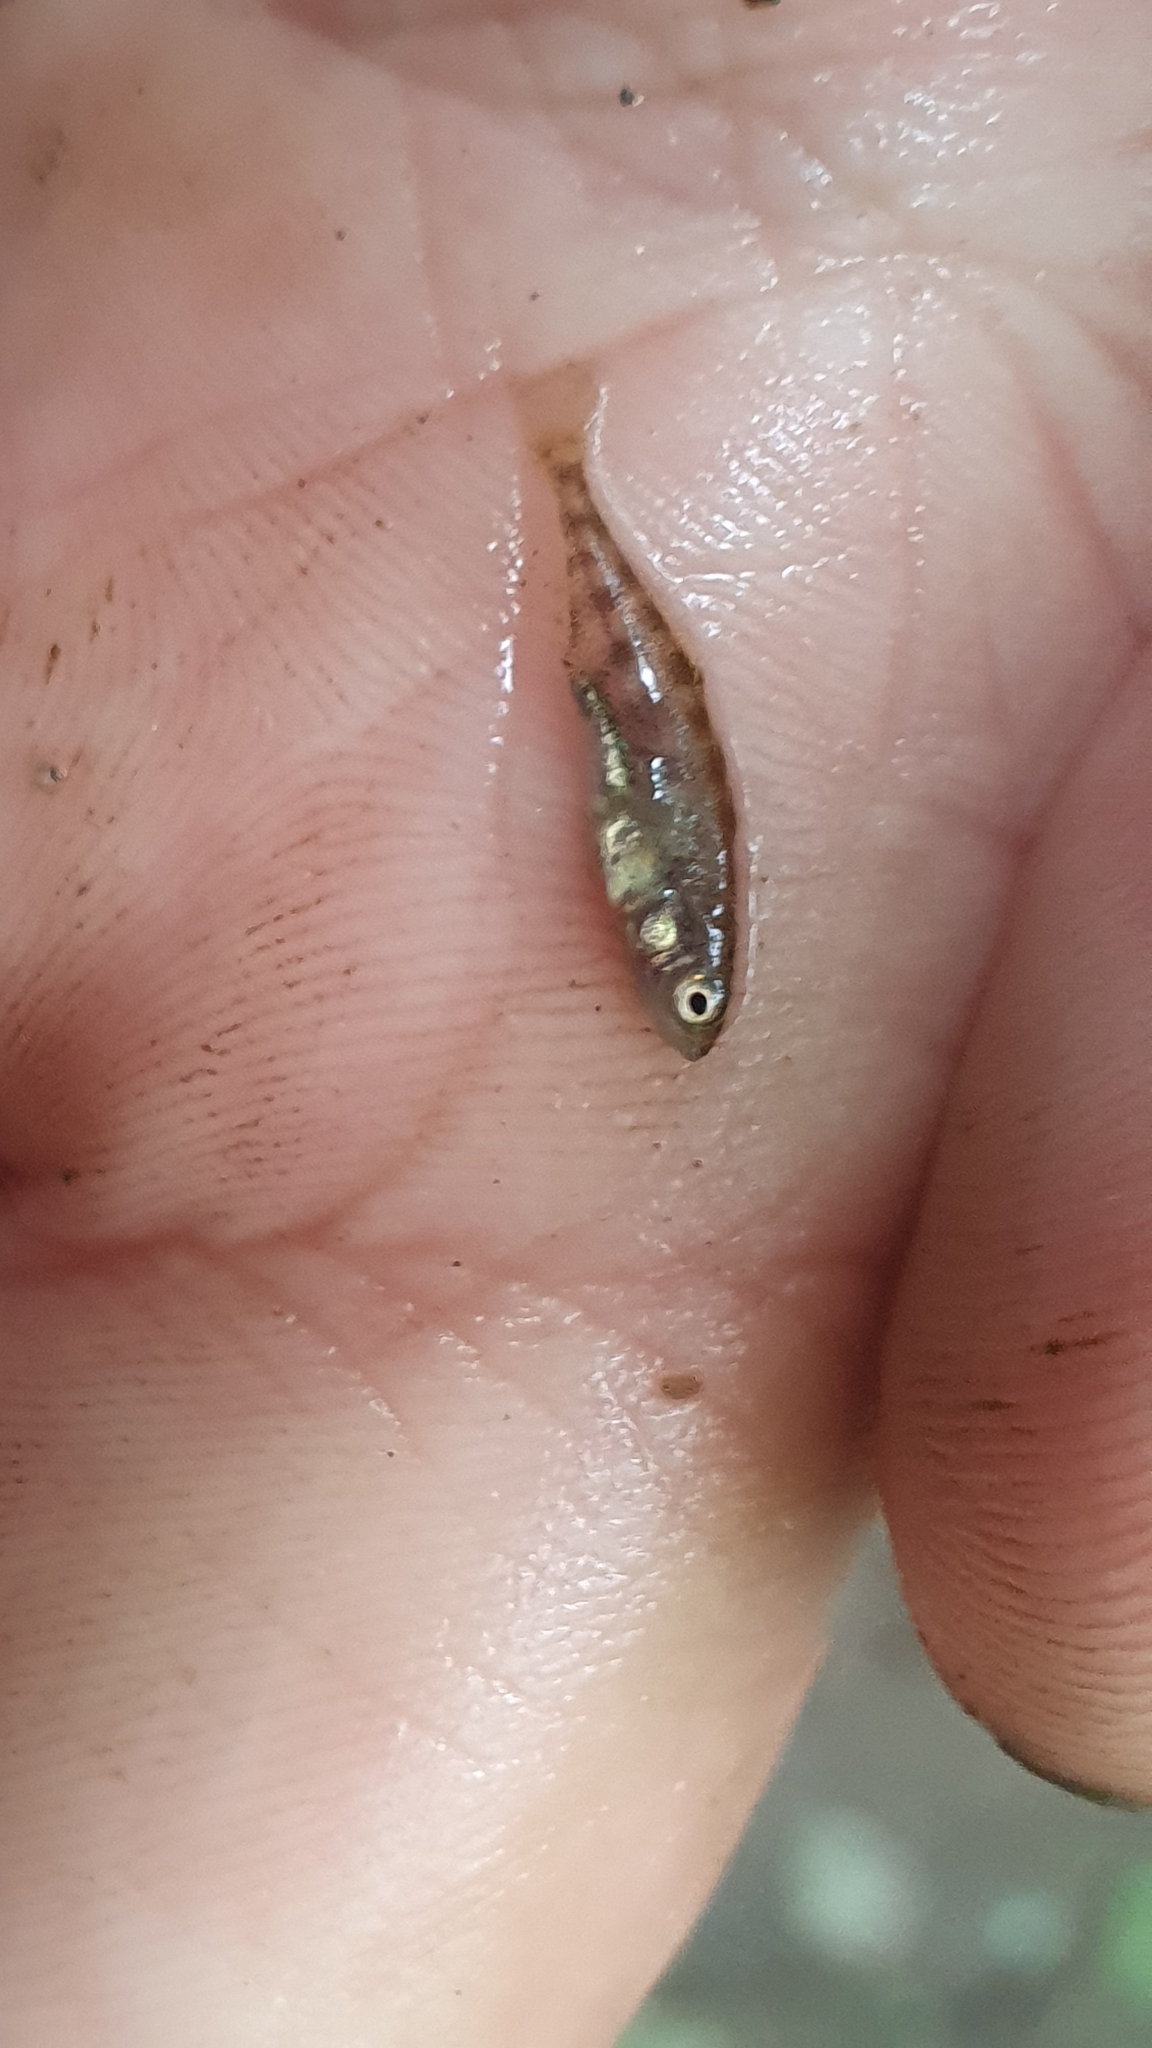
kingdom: Animalia
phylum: Chordata
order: Gasterosteiformes
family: Gasterosteidae
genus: Gasterosteus
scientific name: Gasterosteus aculeatus
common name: Three-spined stickleback
